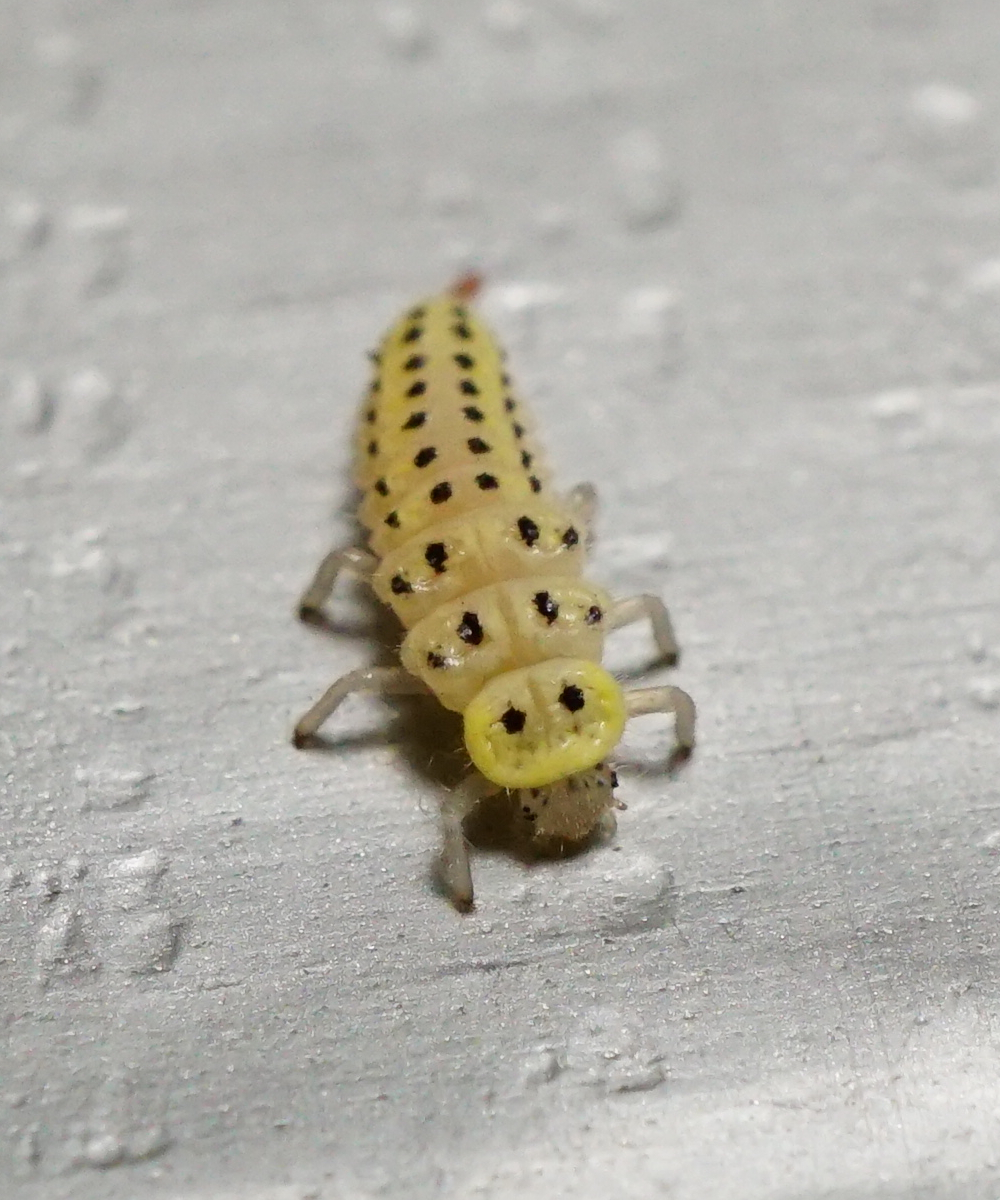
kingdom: Animalia
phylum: Arthropoda
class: Insecta
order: Coleoptera
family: Coccinellidae
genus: Vibidia
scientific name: Vibidia duodecimguttata
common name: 12-spot ladybird
